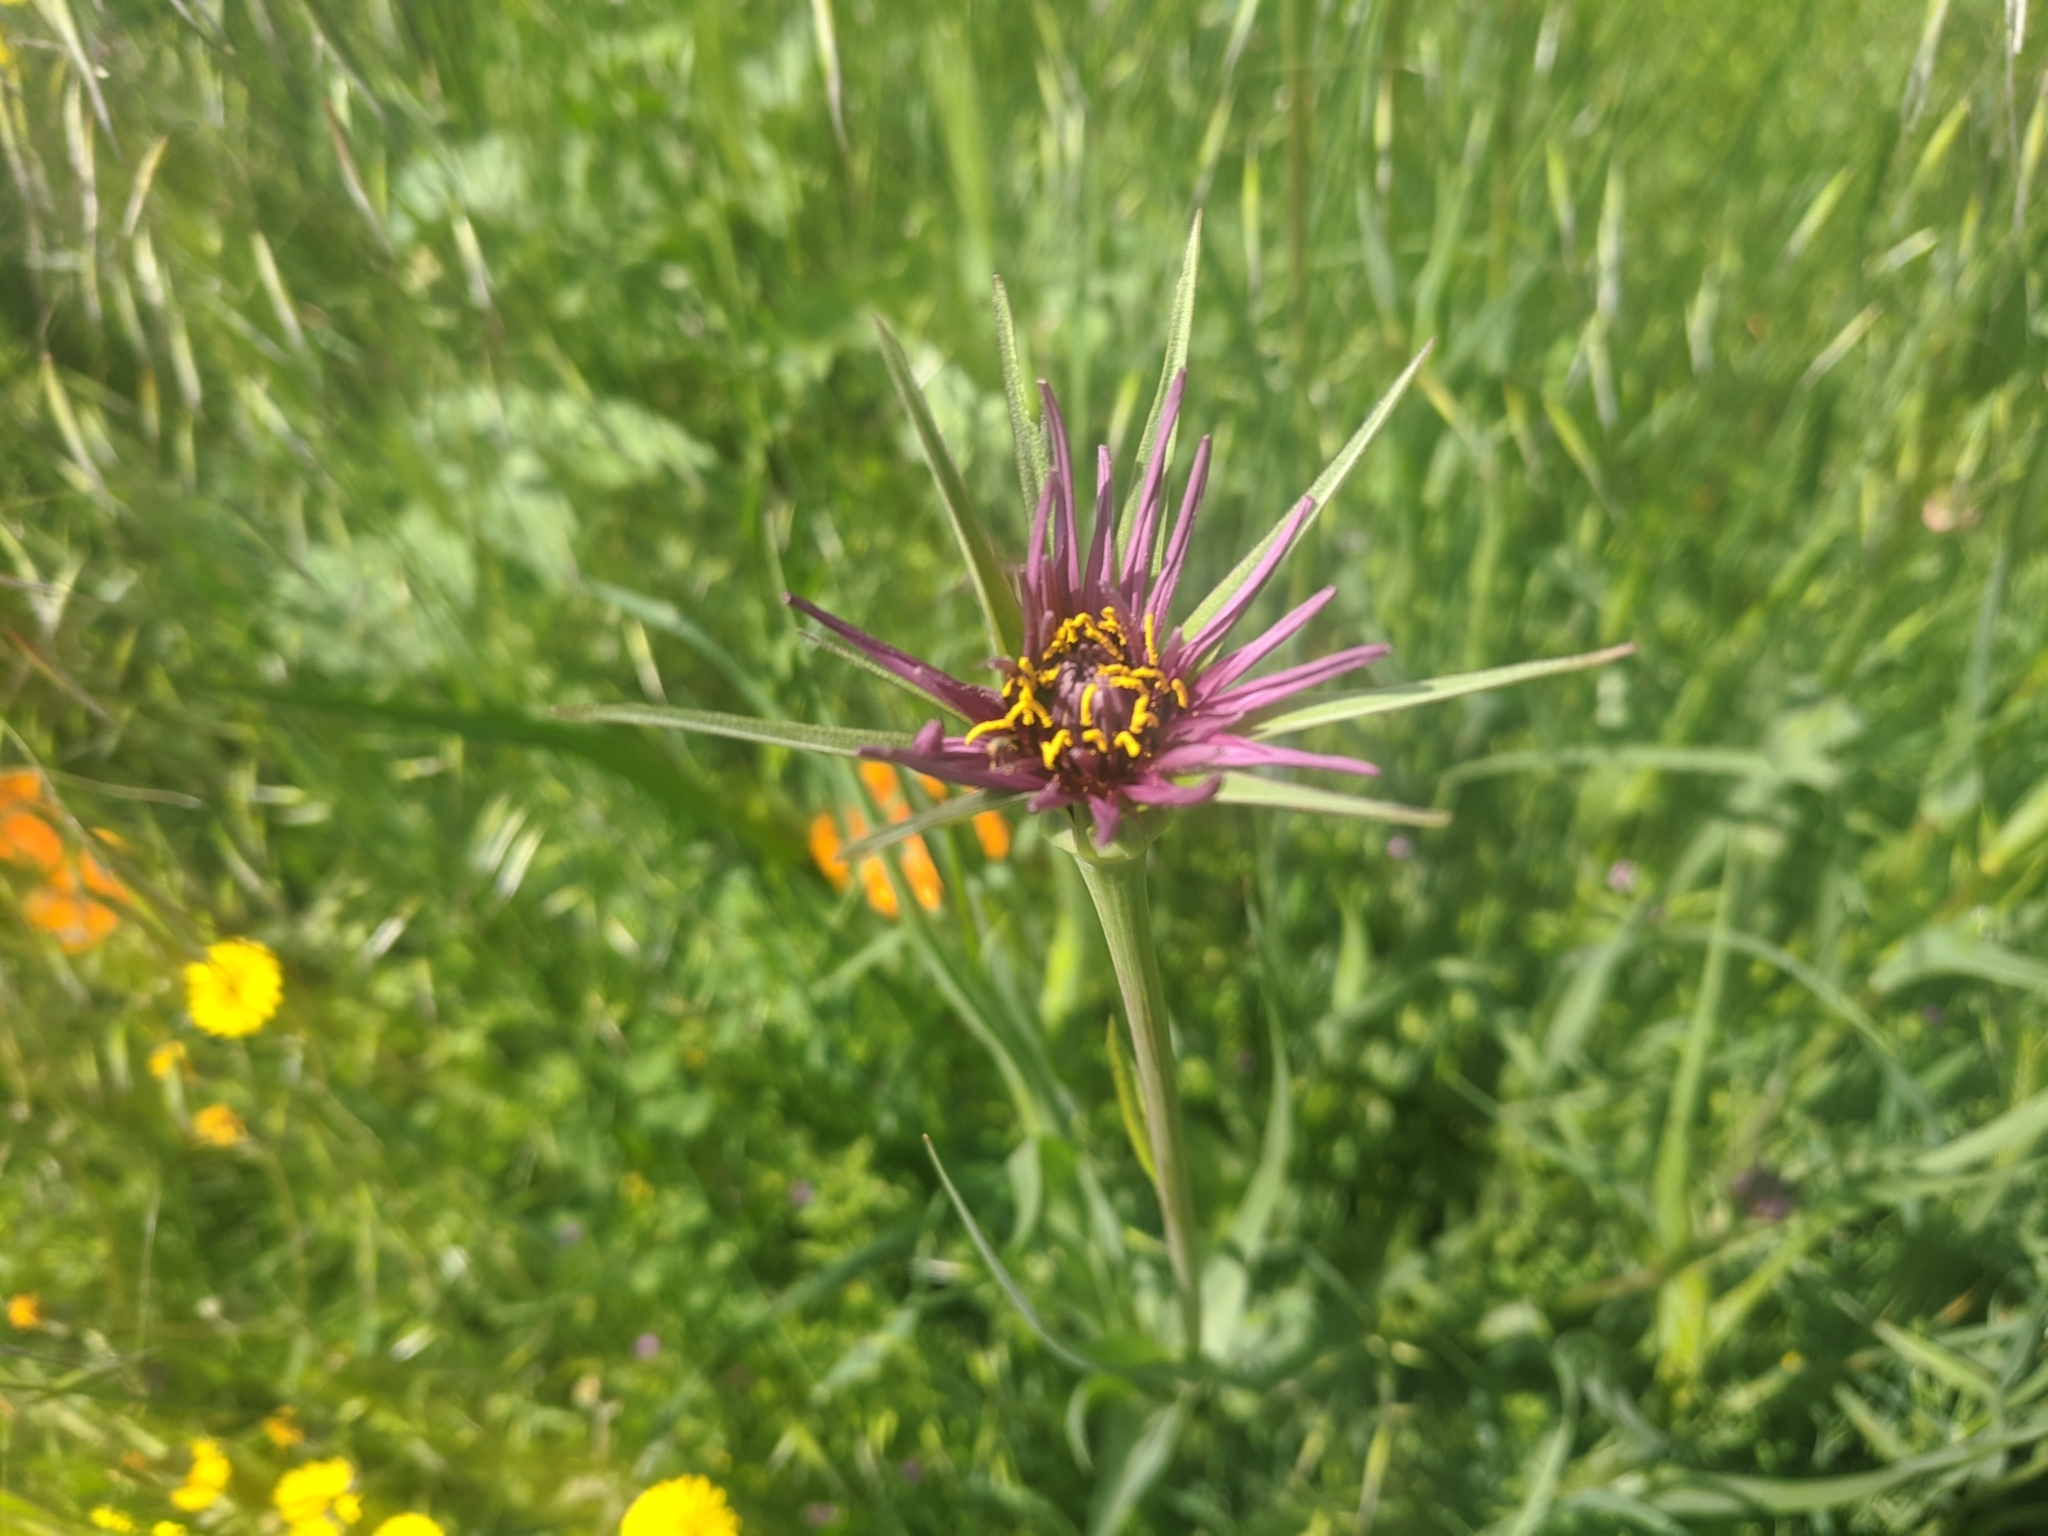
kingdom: Plantae
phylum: Tracheophyta
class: Magnoliopsida
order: Asterales
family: Asteraceae
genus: Tragopogon
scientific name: Tragopogon porrifolius
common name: Salsify
